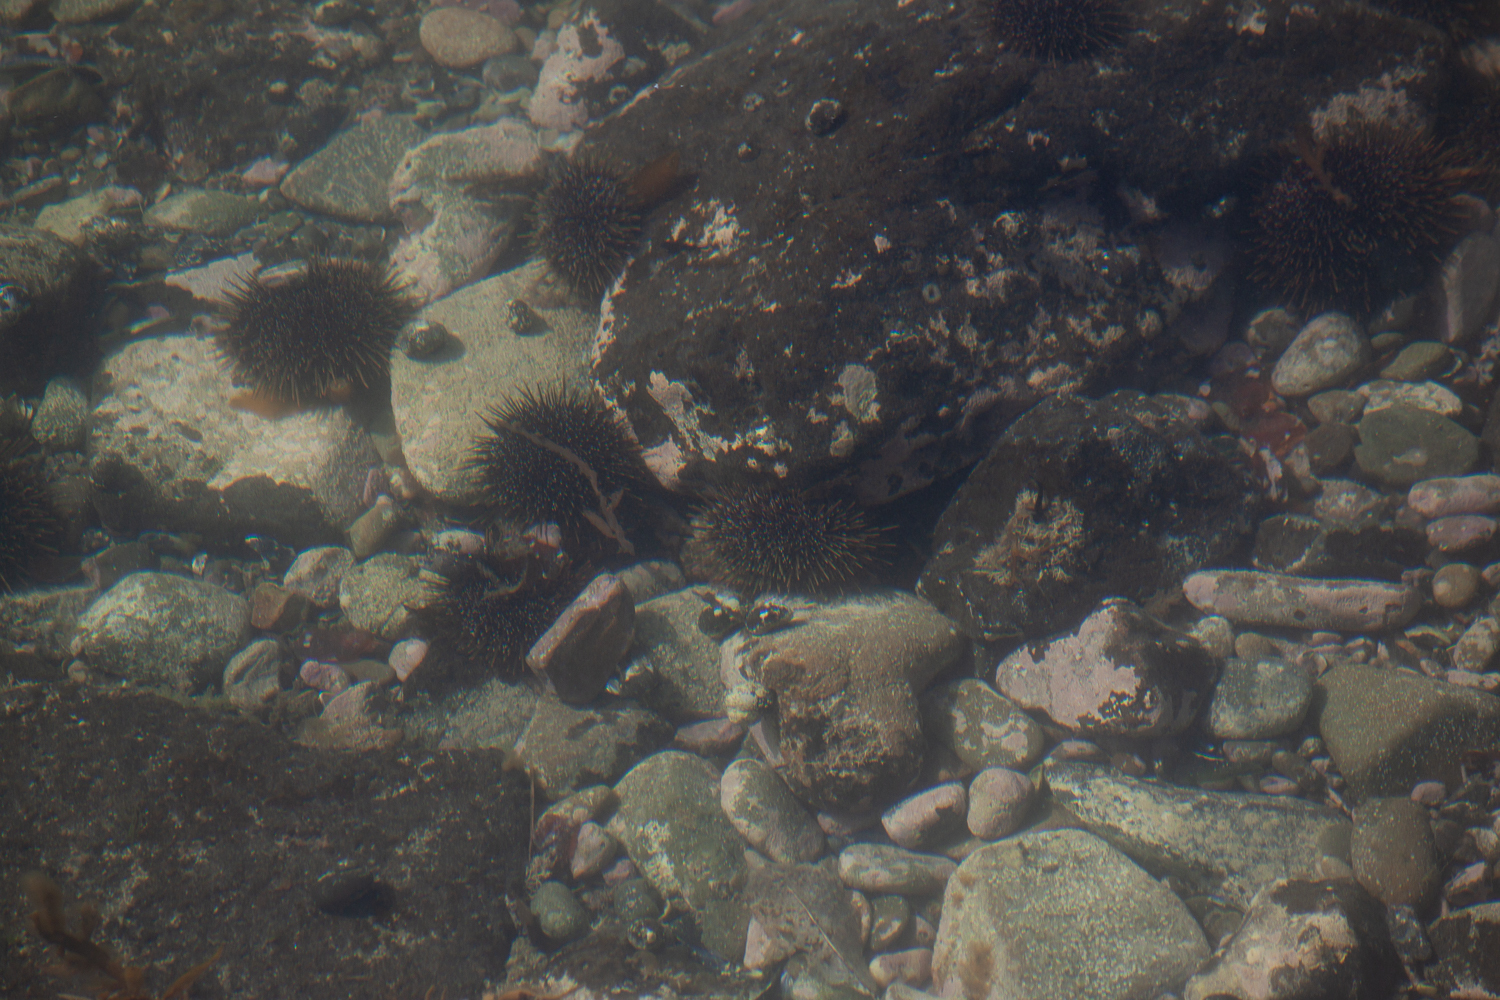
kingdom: Animalia
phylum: Echinodermata
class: Echinoidea
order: Camarodonta
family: Echinometridae
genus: Evechinus
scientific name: Evechinus chloroticus
